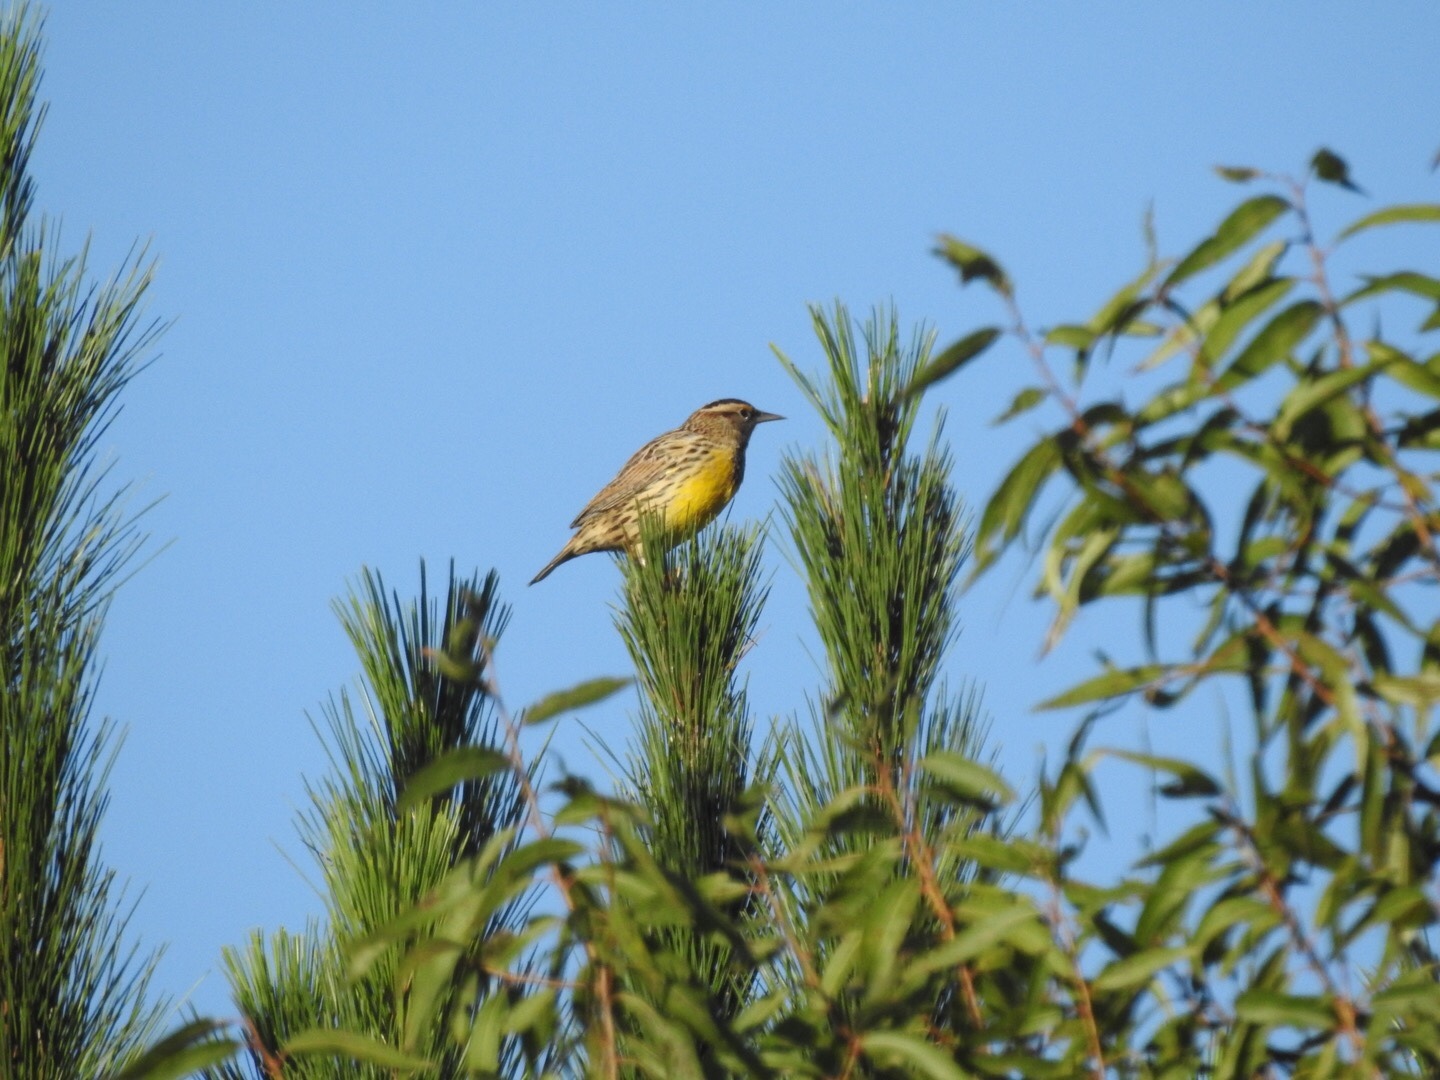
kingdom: Animalia
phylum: Chordata
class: Aves
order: Passeriformes
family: Icteridae
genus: Sturnella
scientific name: Sturnella magna
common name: Eastern meadowlark
